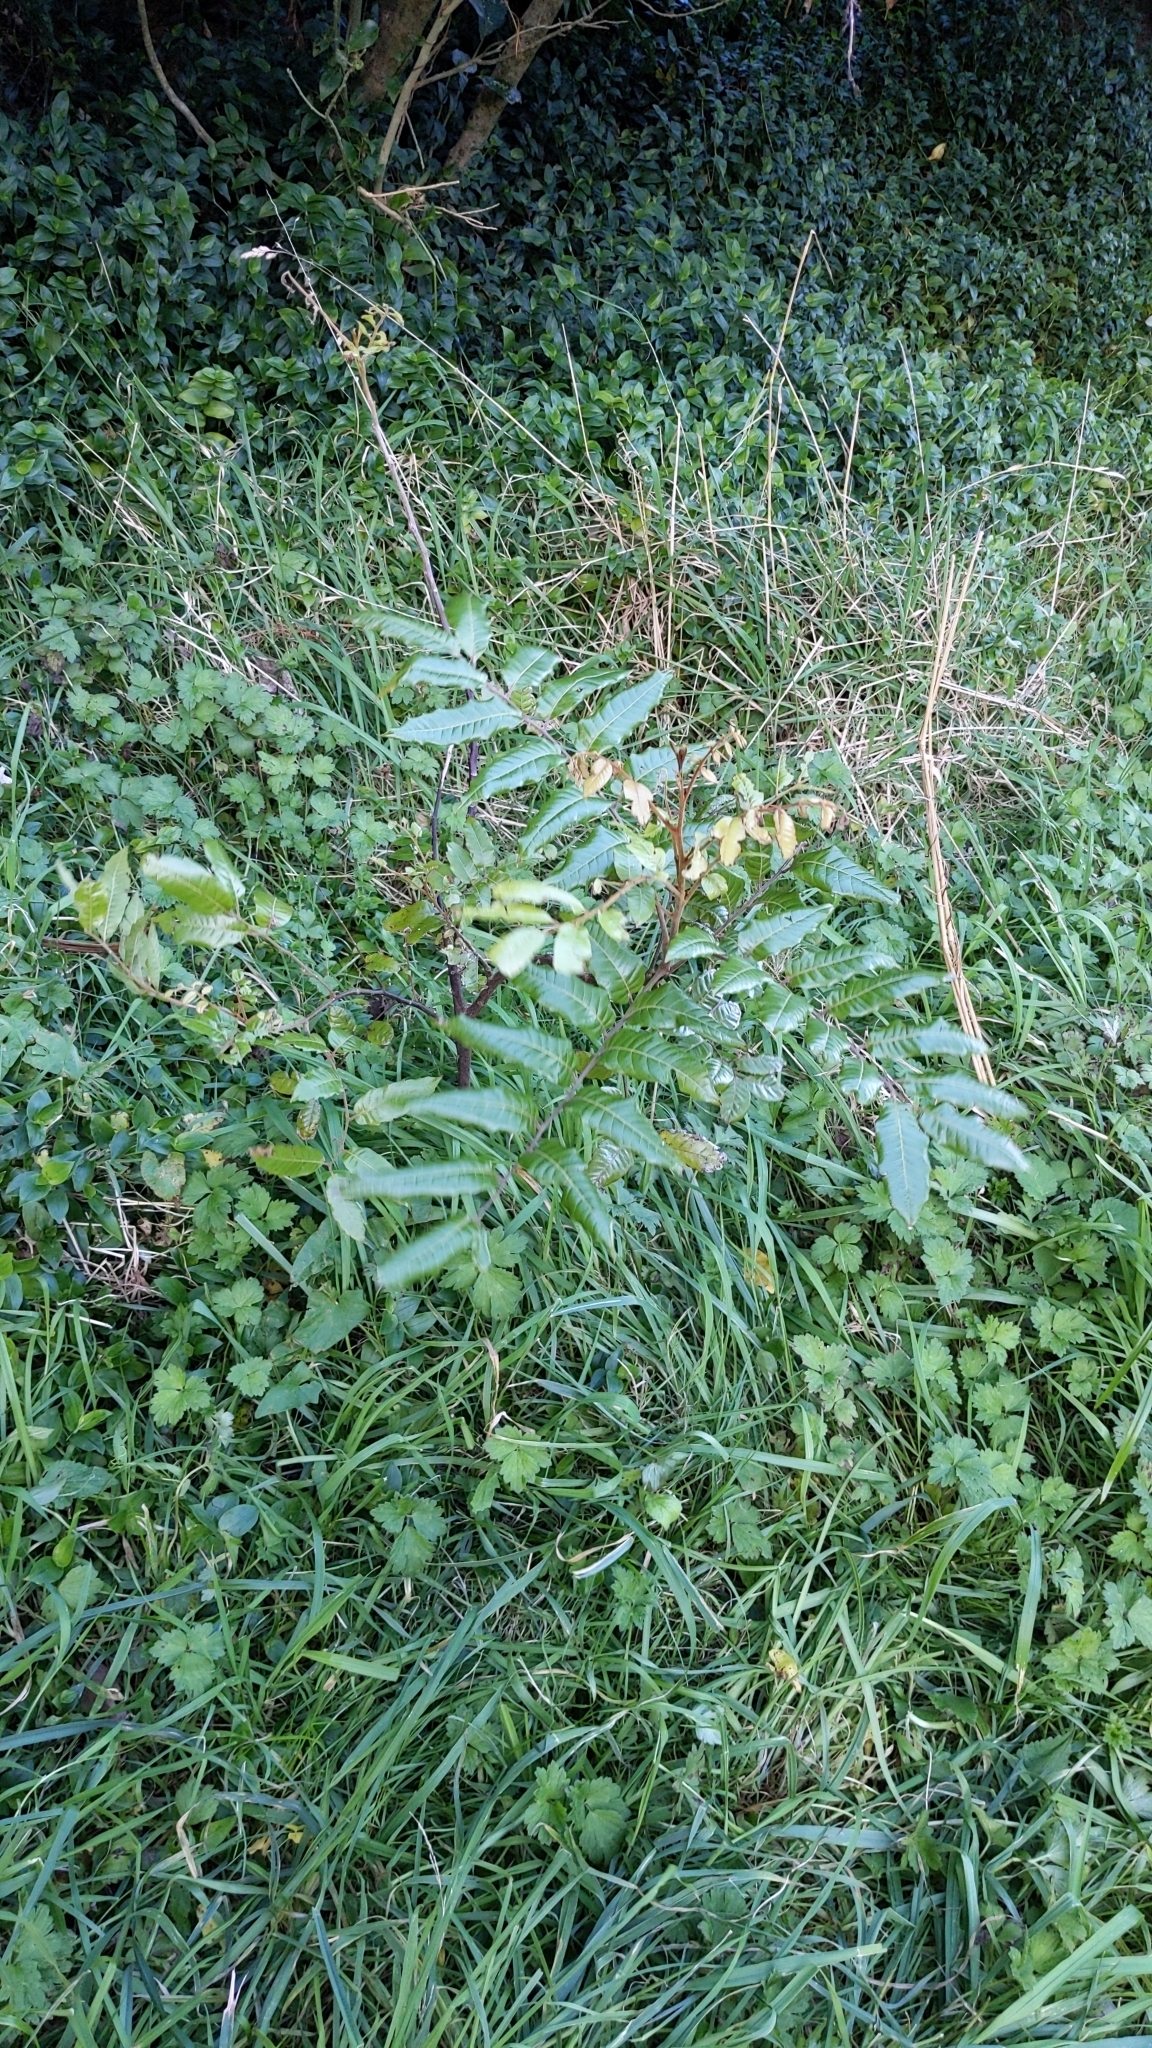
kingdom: Plantae
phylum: Tracheophyta
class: Magnoliopsida
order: Sapindales
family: Sapindaceae
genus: Alectryon
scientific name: Alectryon excelsus
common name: Three kings titoki
